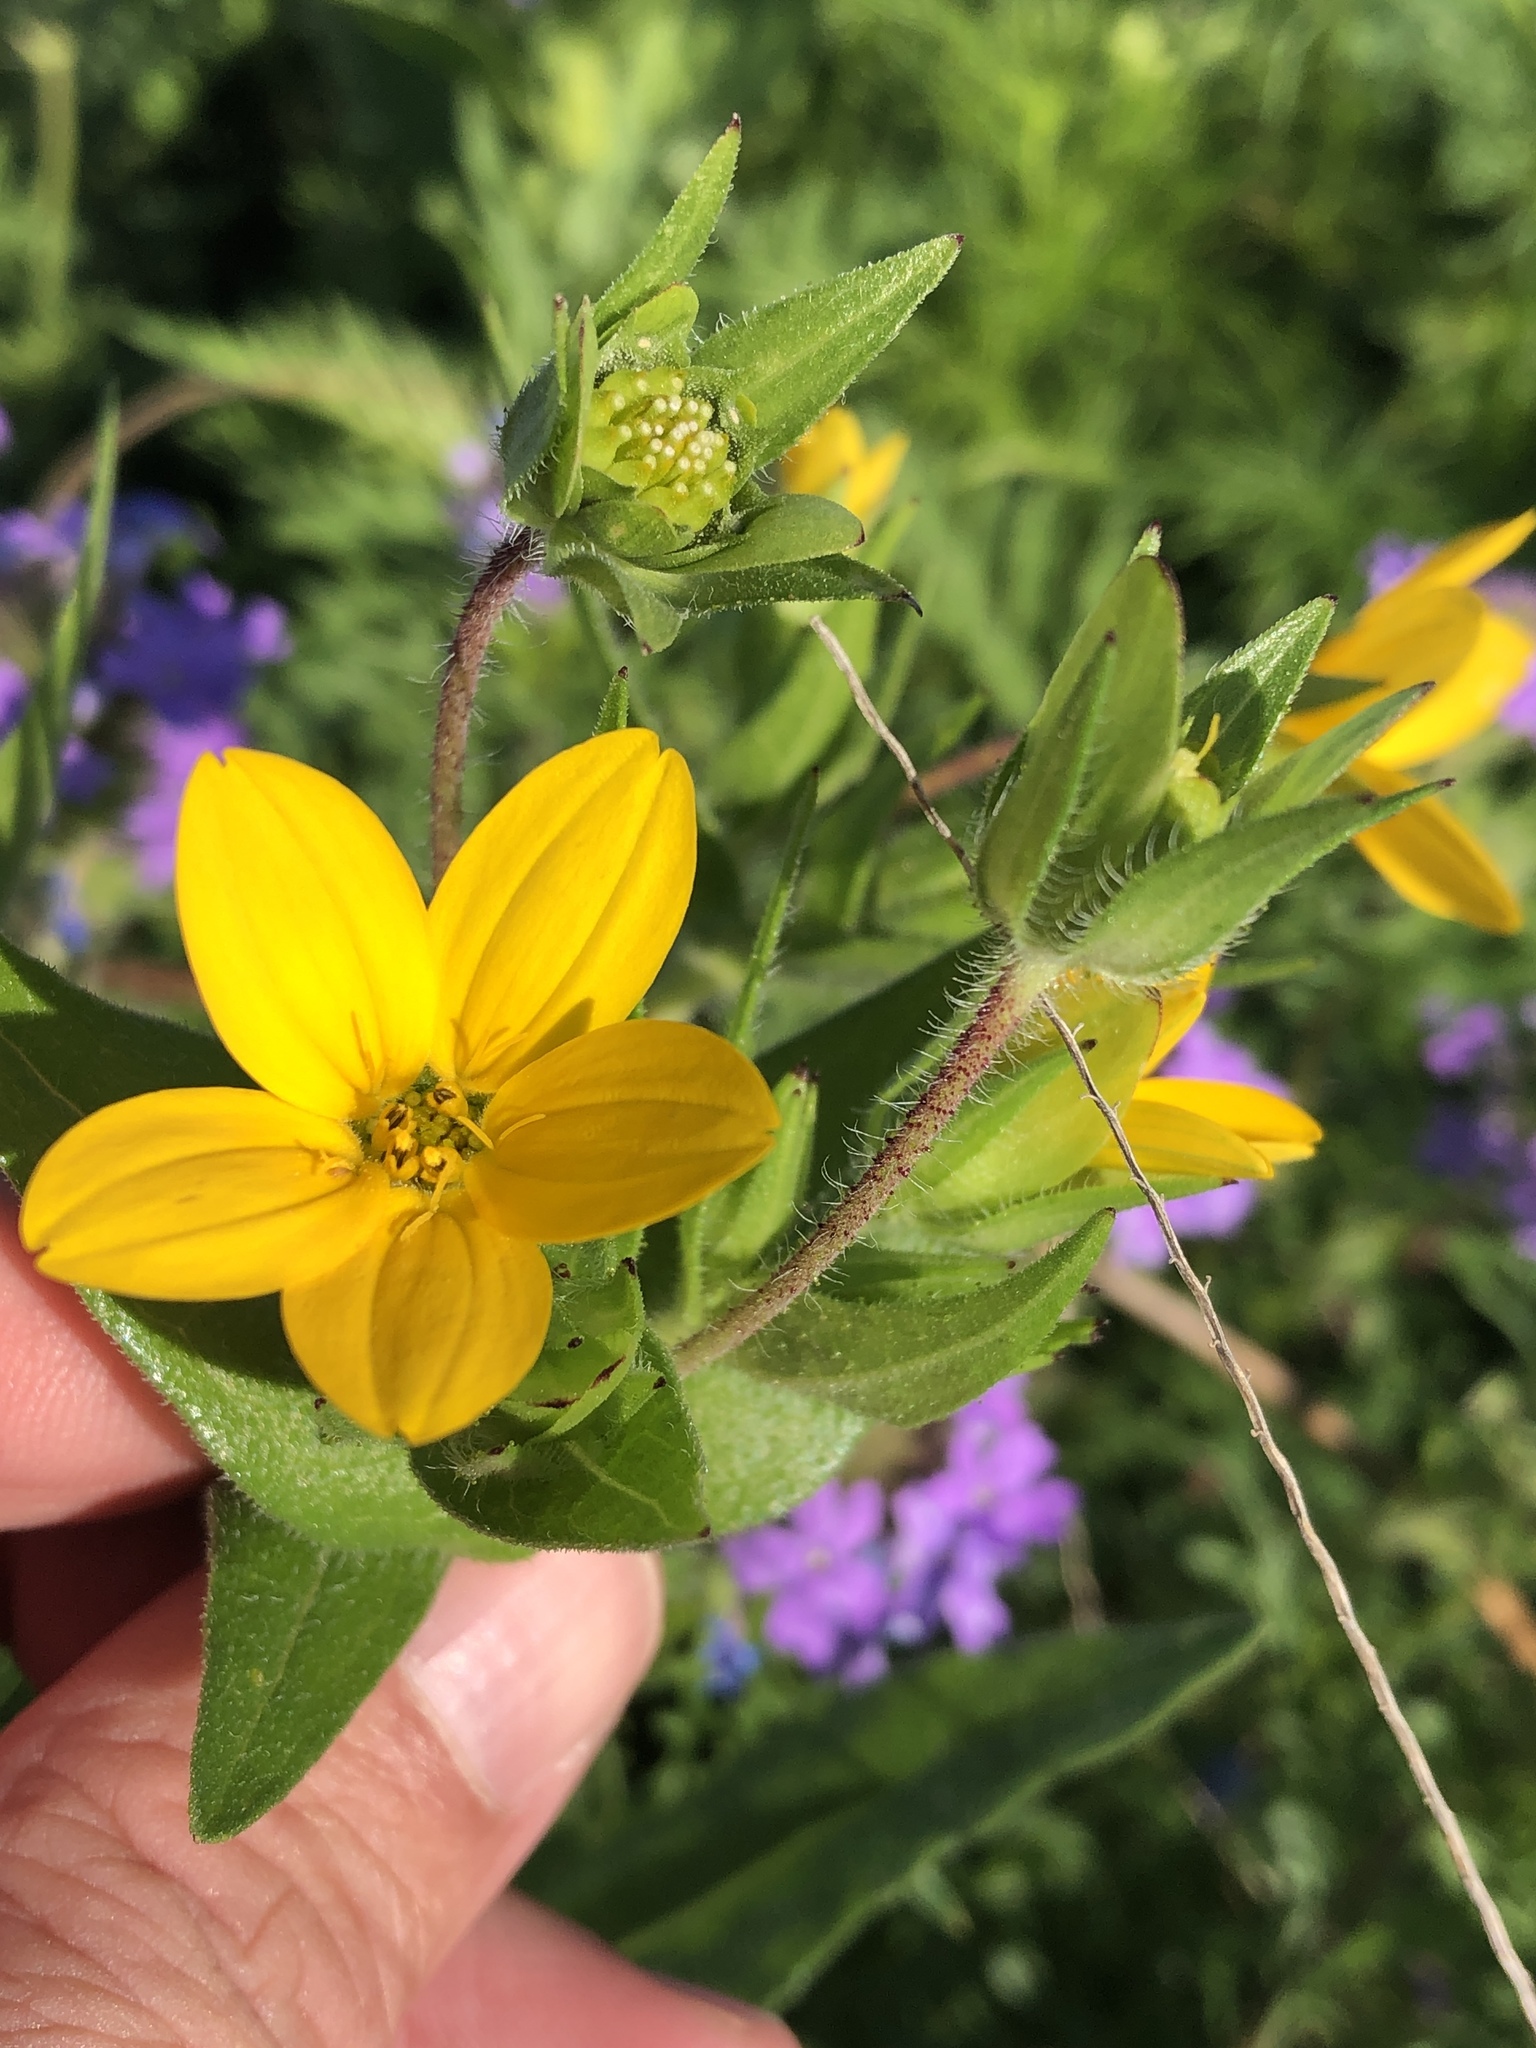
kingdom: Plantae
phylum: Tracheophyta
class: Magnoliopsida
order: Asterales
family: Asteraceae
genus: Lindheimera
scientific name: Lindheimera texana
